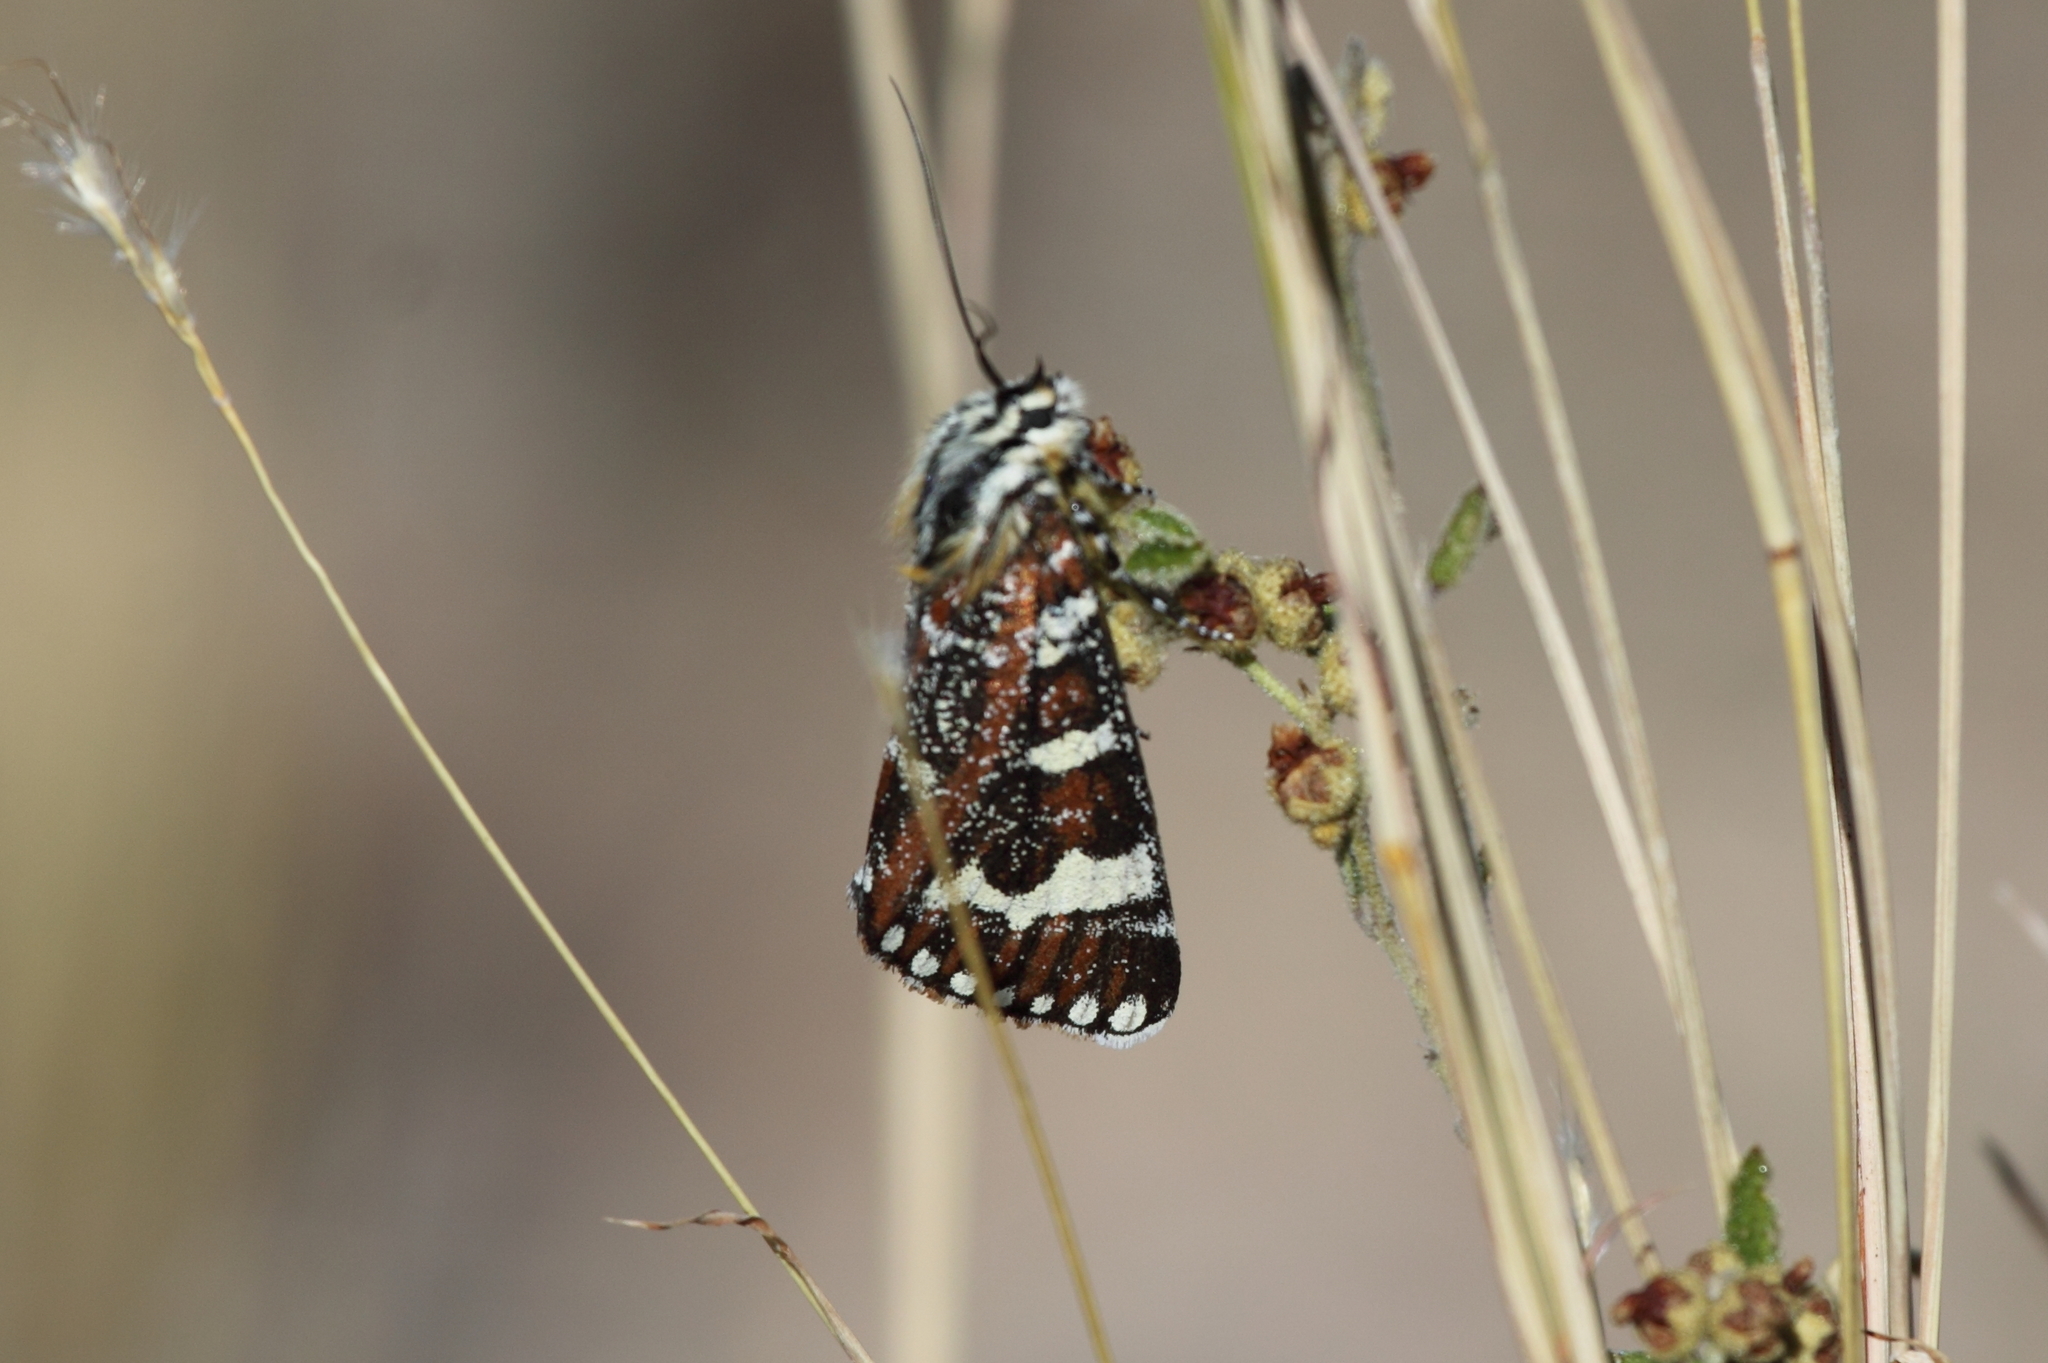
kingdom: Animalia
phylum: Arthropoda
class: Insecta
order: Lepidoptera
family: Noctuidae
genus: Apina
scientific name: Apina callisto
